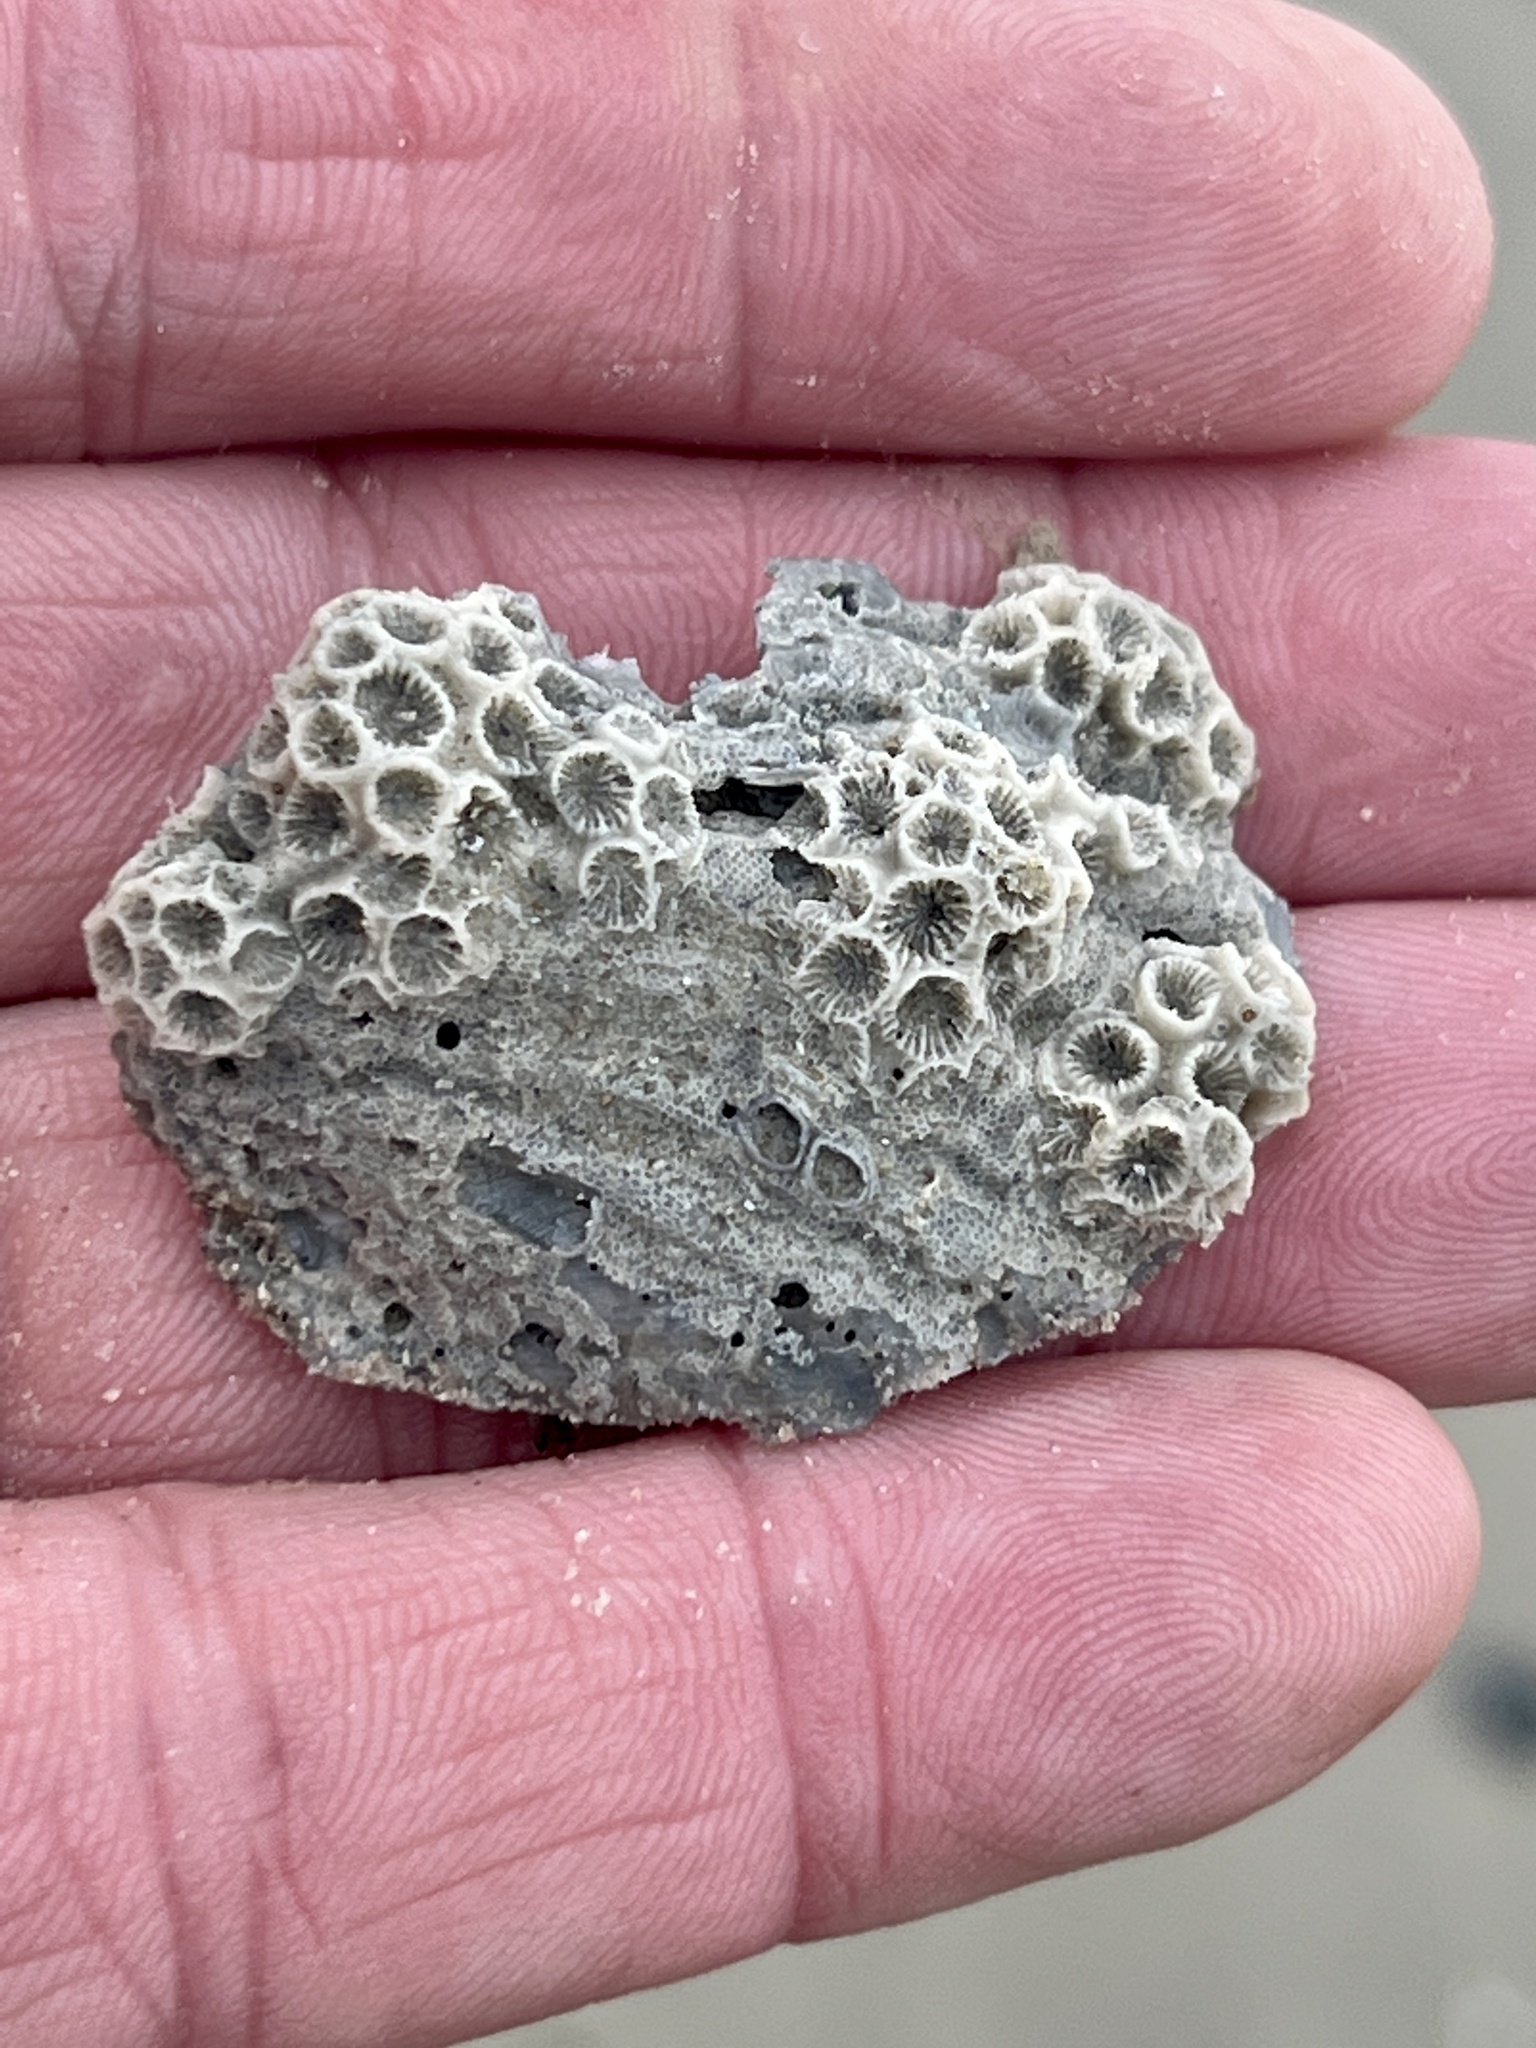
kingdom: Animalia
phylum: Cnidaria
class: Anthozoa
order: Scleractinia
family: Astrangiidae
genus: Astrangia
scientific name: Astrangia poculata
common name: Northern star coral
